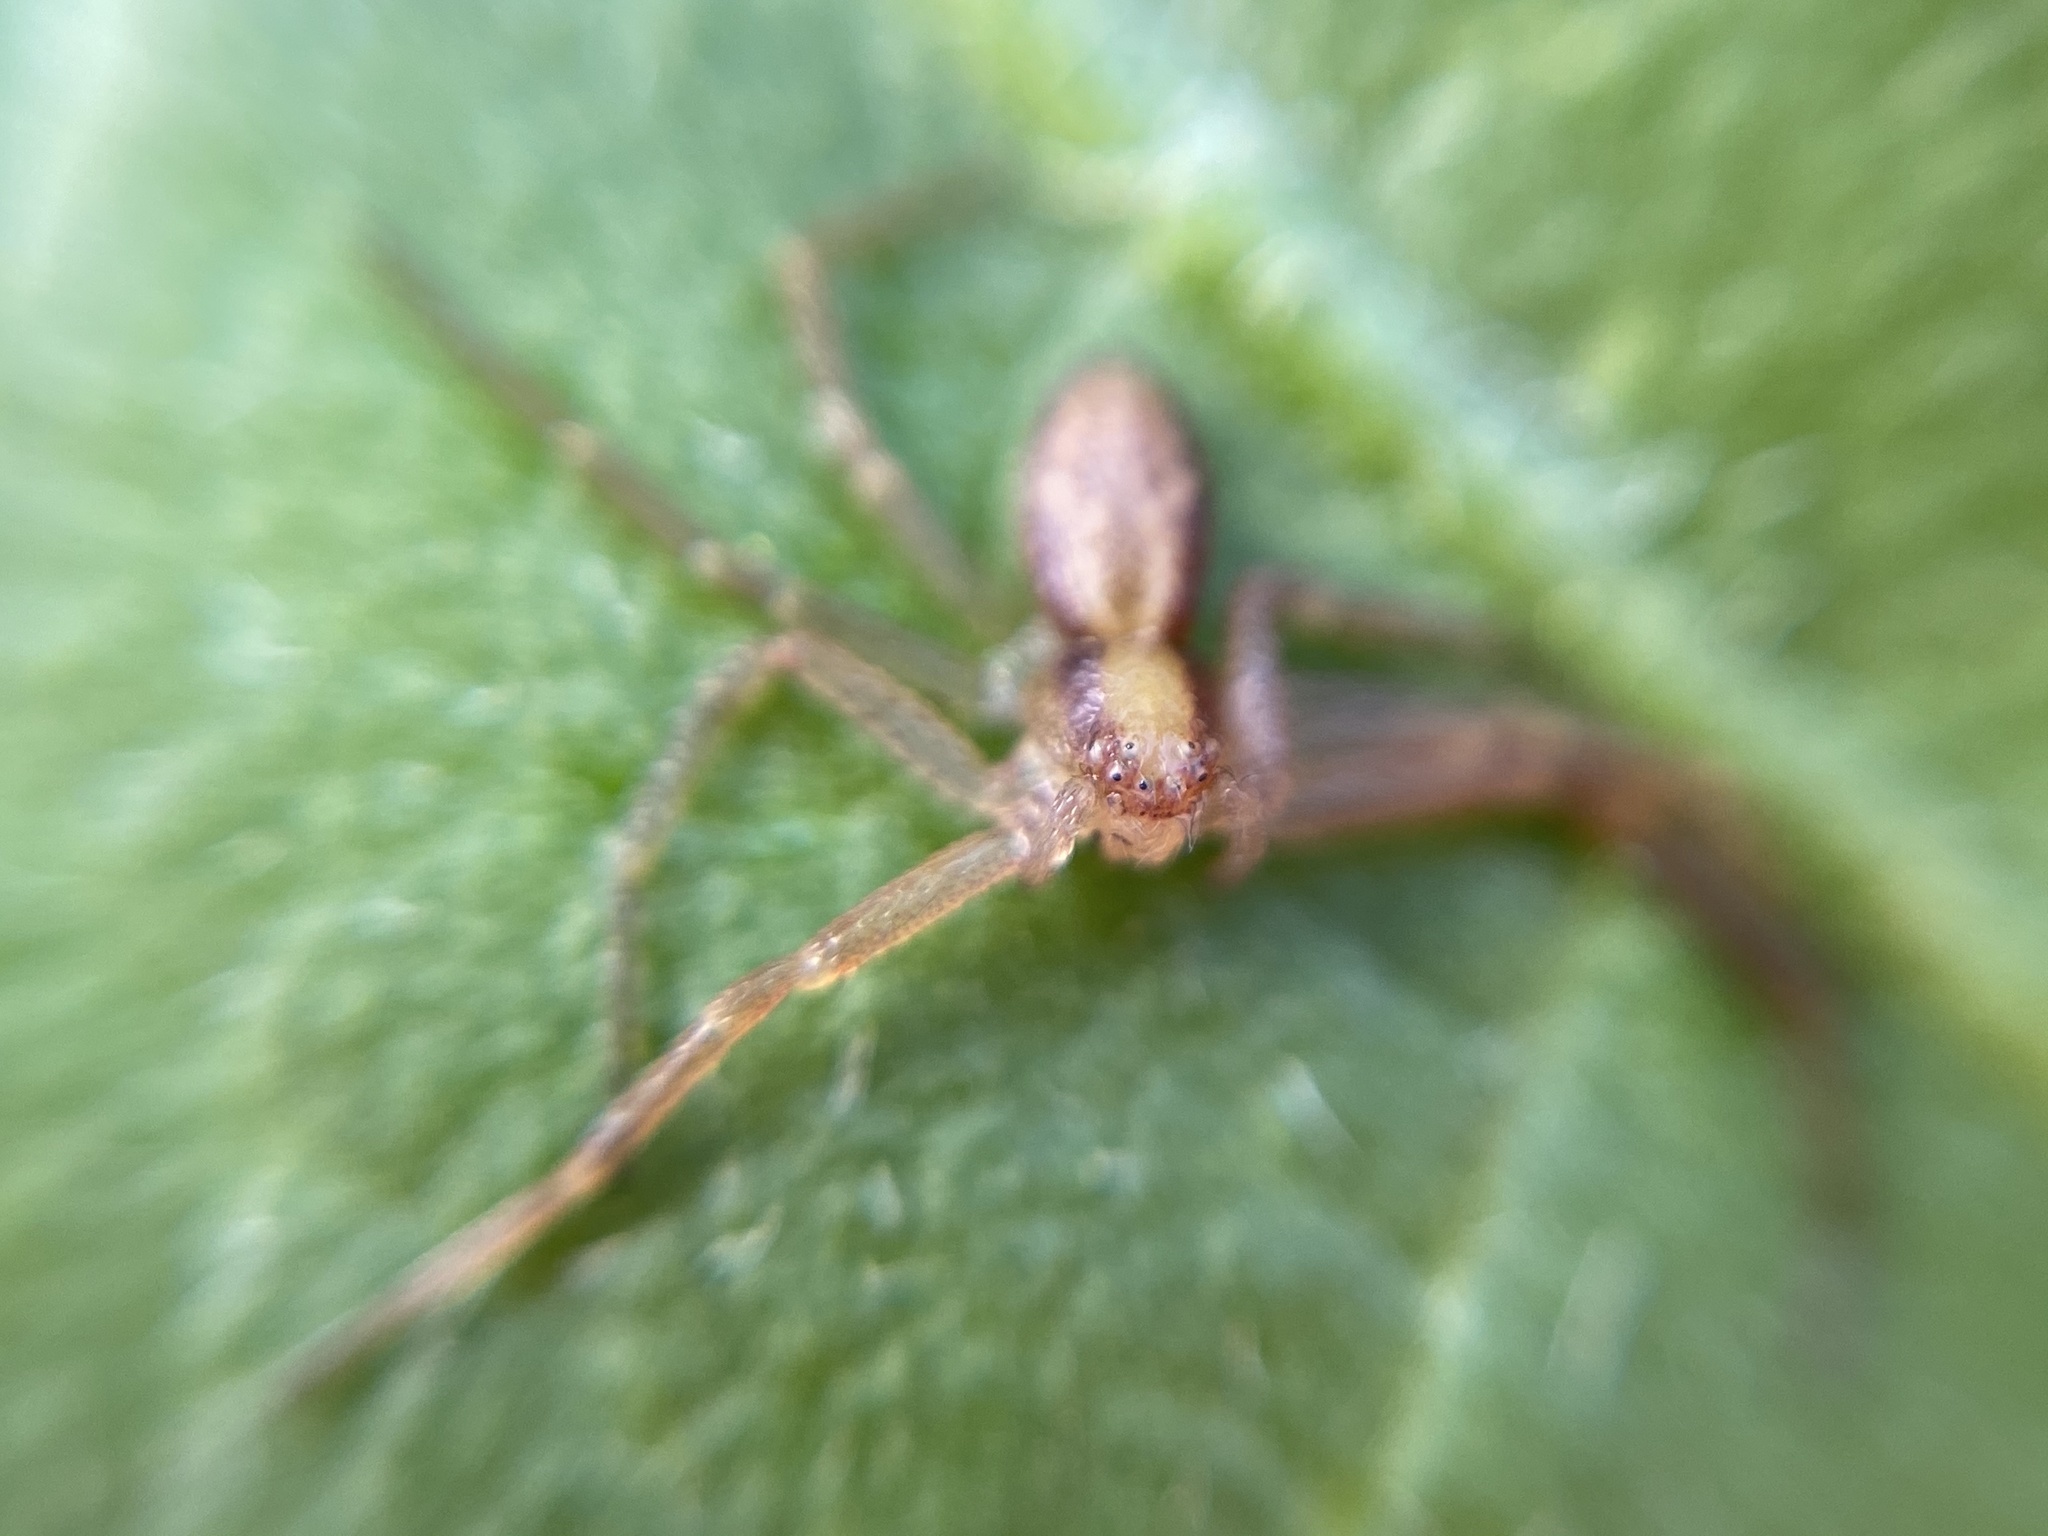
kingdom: Animalia
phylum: Arthropoda
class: Arachnida
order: Araneae
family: Philodromidae
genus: Philodromus
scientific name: Philodromus
